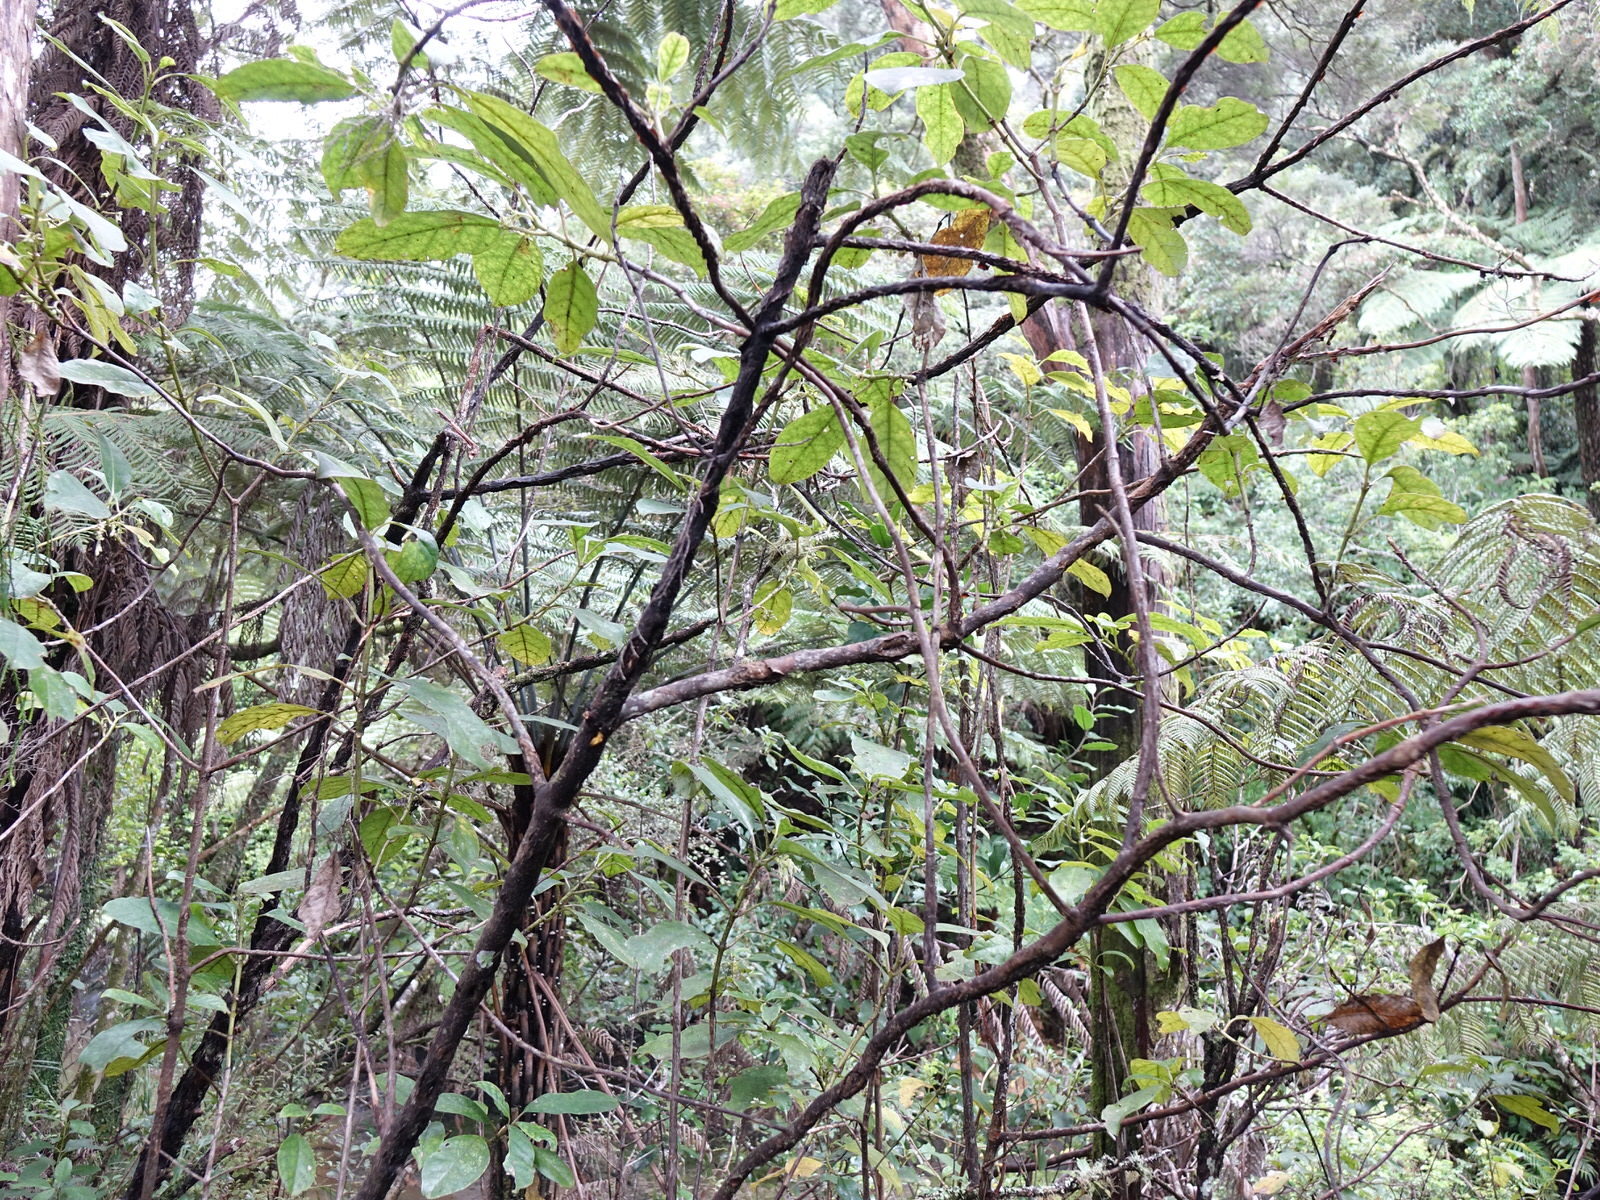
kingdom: Plantae
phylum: Tracheophyta
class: Magnoliopsida
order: Gentianales
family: Rubiaceae
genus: Coprosma
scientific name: Coprosma autumnalis
